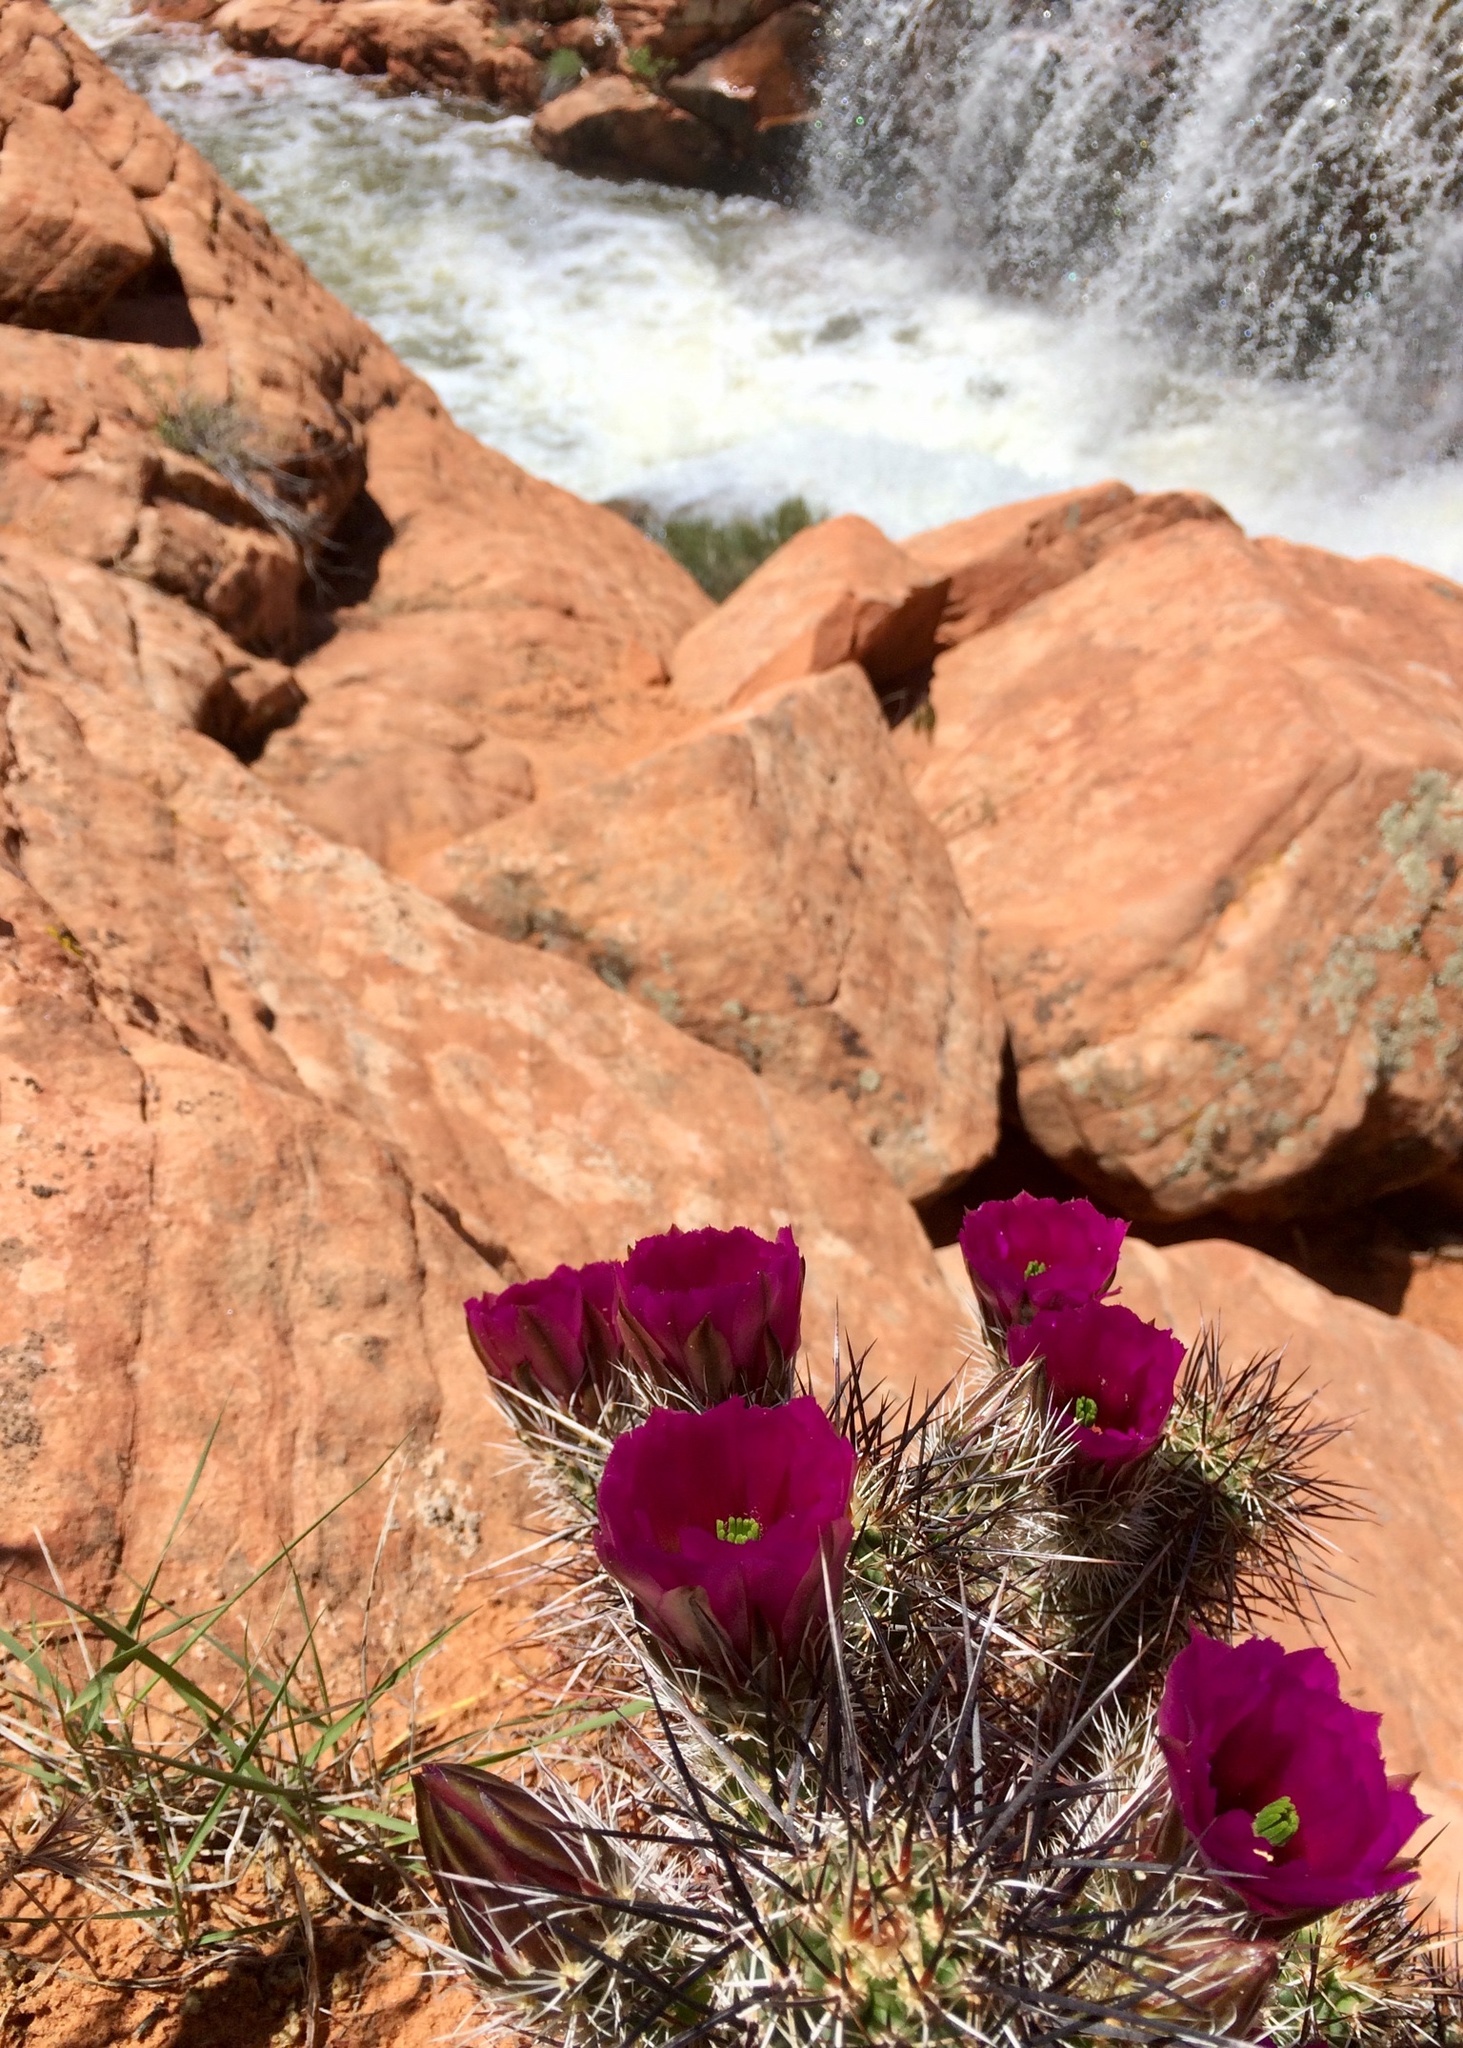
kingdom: Plantae
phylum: Tracheophyta
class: Magnoliopsida
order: Caryophyllales
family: Cactaceae
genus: Echinocereus
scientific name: Echinocereus relictus
